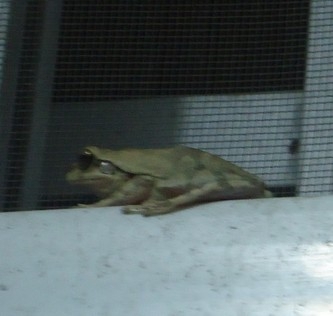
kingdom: Animalia
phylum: Chordata
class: Amphibia
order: Anura
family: Hylidae
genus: Smilisca
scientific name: Smilisca baudinii
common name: Mexican smilisca
